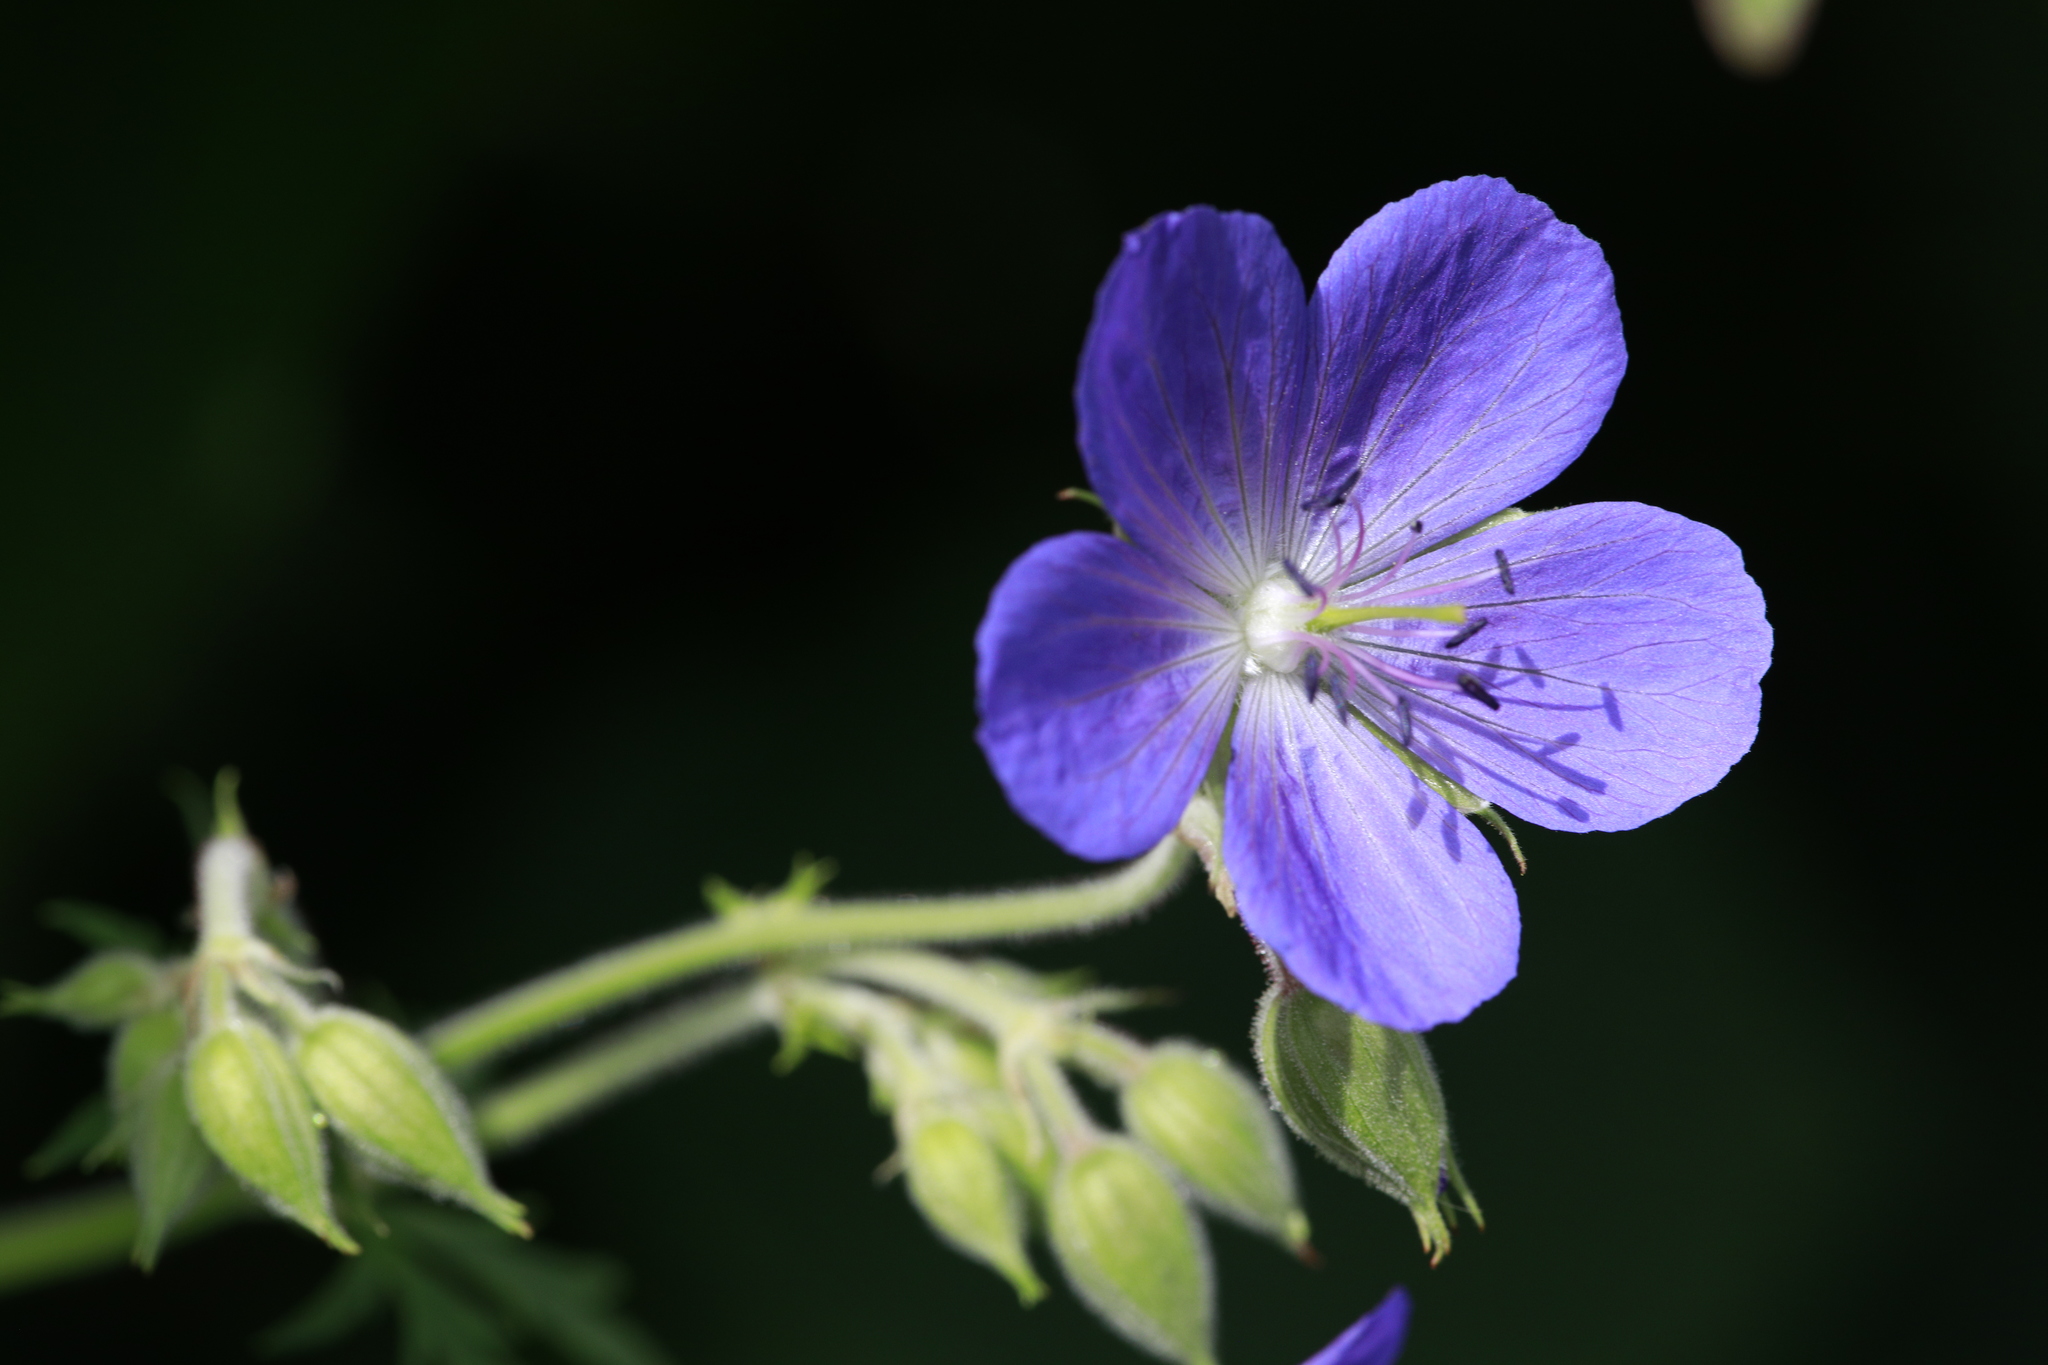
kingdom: Plantae
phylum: Tracheophyta
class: Magnoliopsida
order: Geraniales
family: Geraniaceae
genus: Geranium
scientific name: Geranium pratense
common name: Meadow crane's-bill
